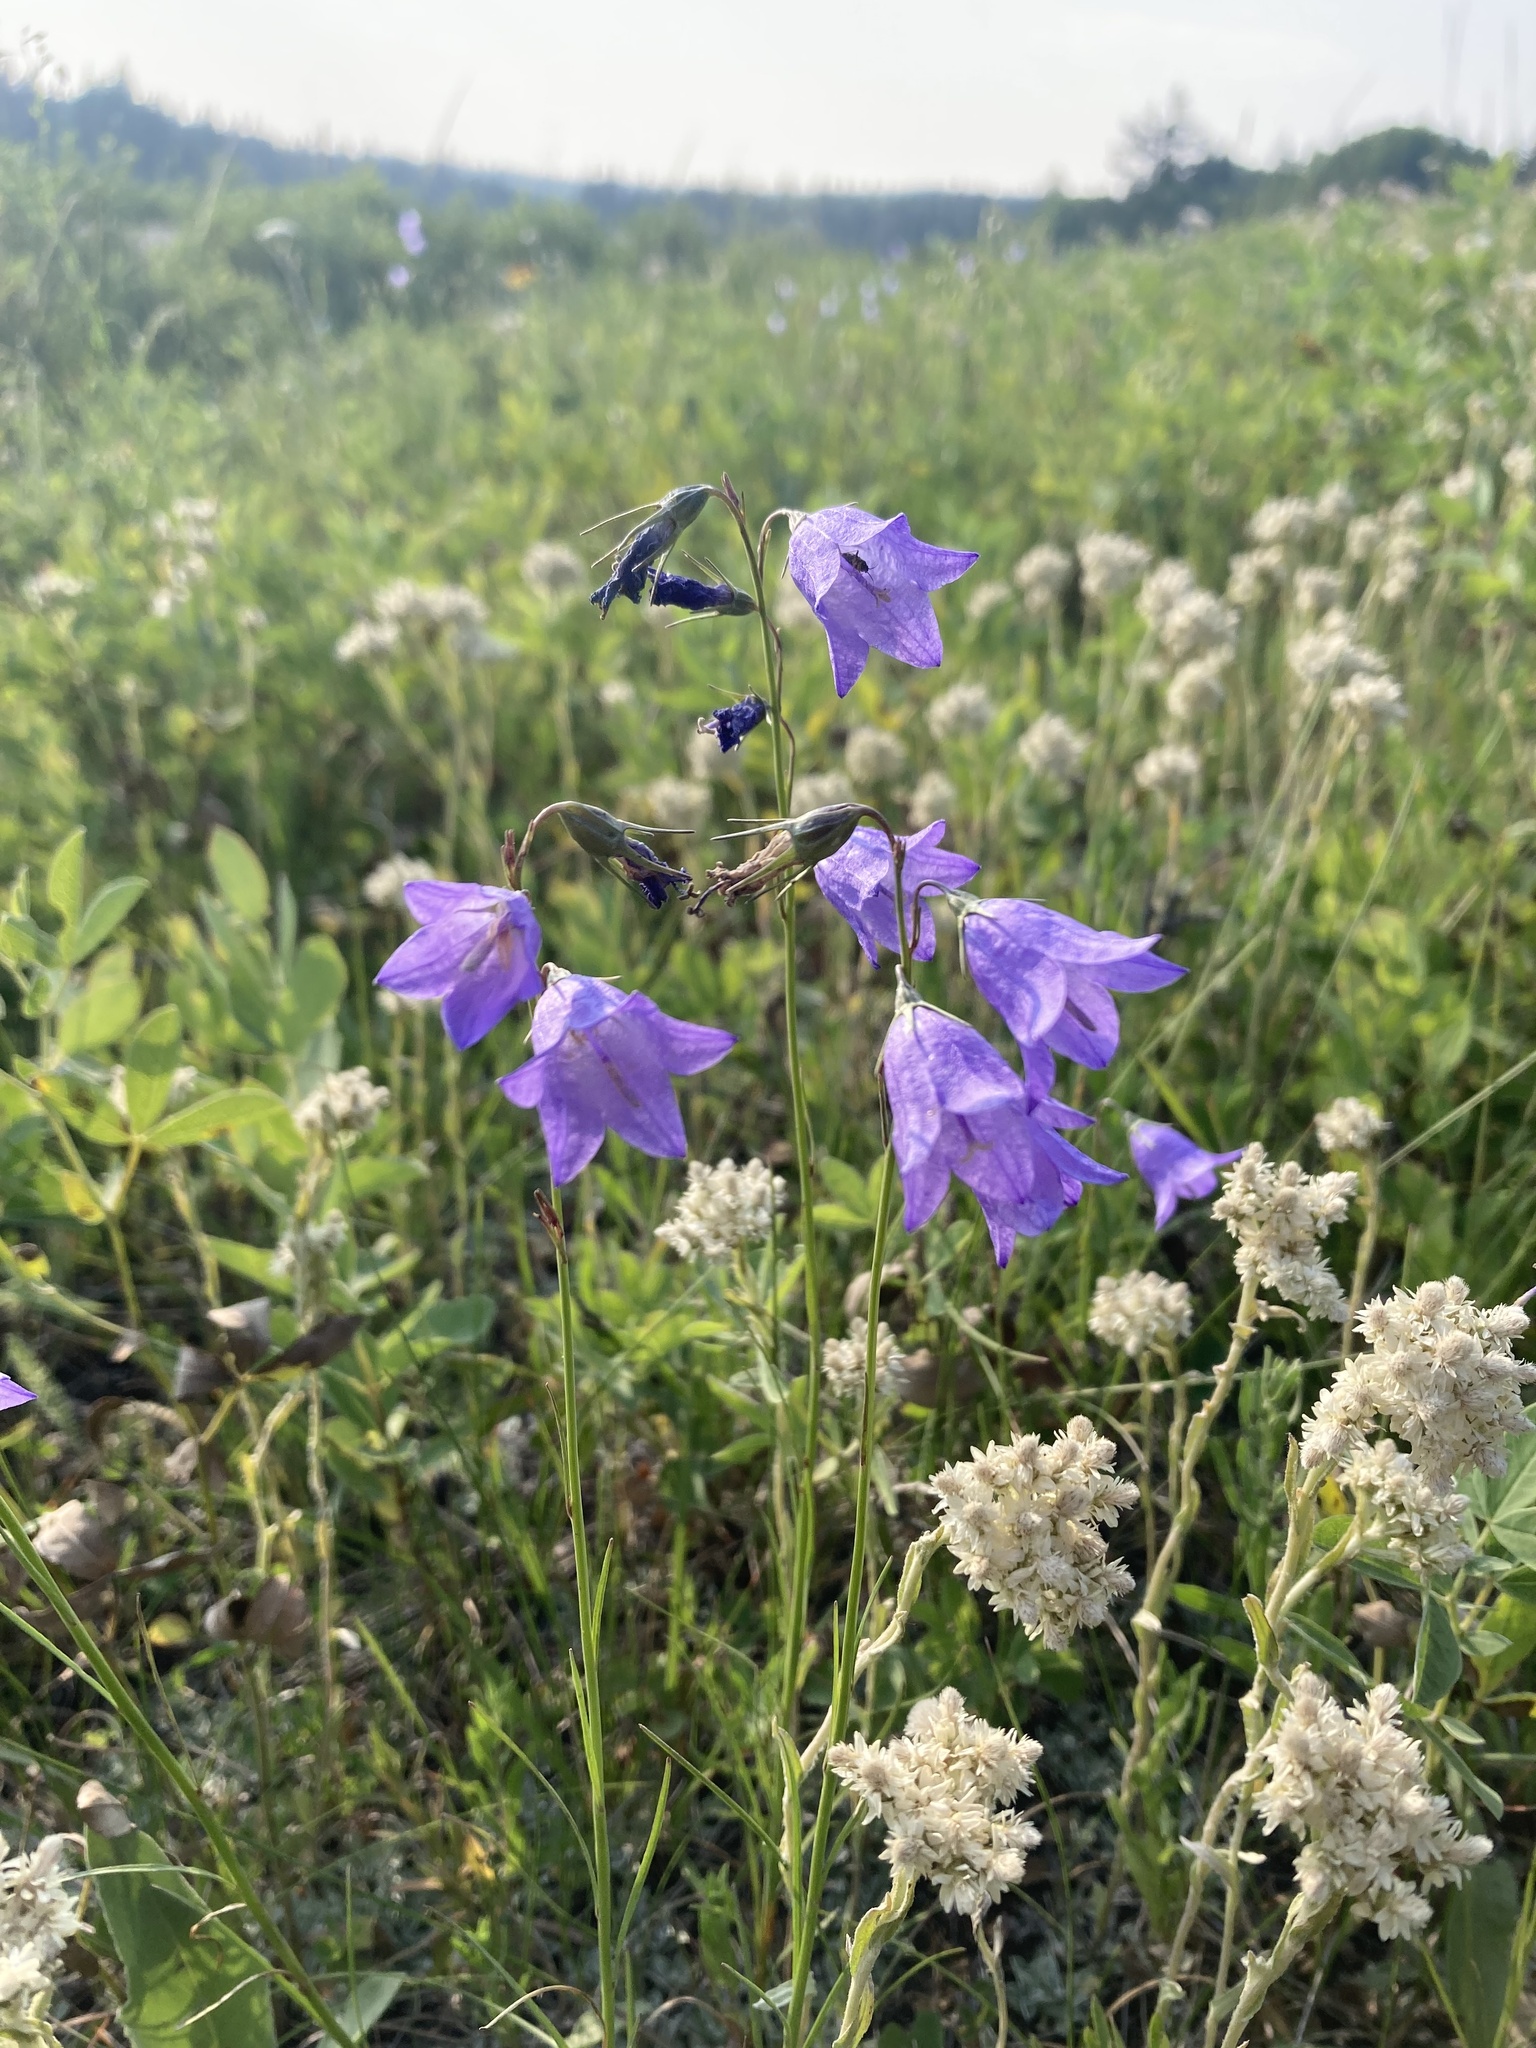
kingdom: Plantae
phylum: Tracheophyta
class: Magnoliopsida
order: Asterales
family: Campanulaceae
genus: Campanula
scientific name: Campanula alaskana
